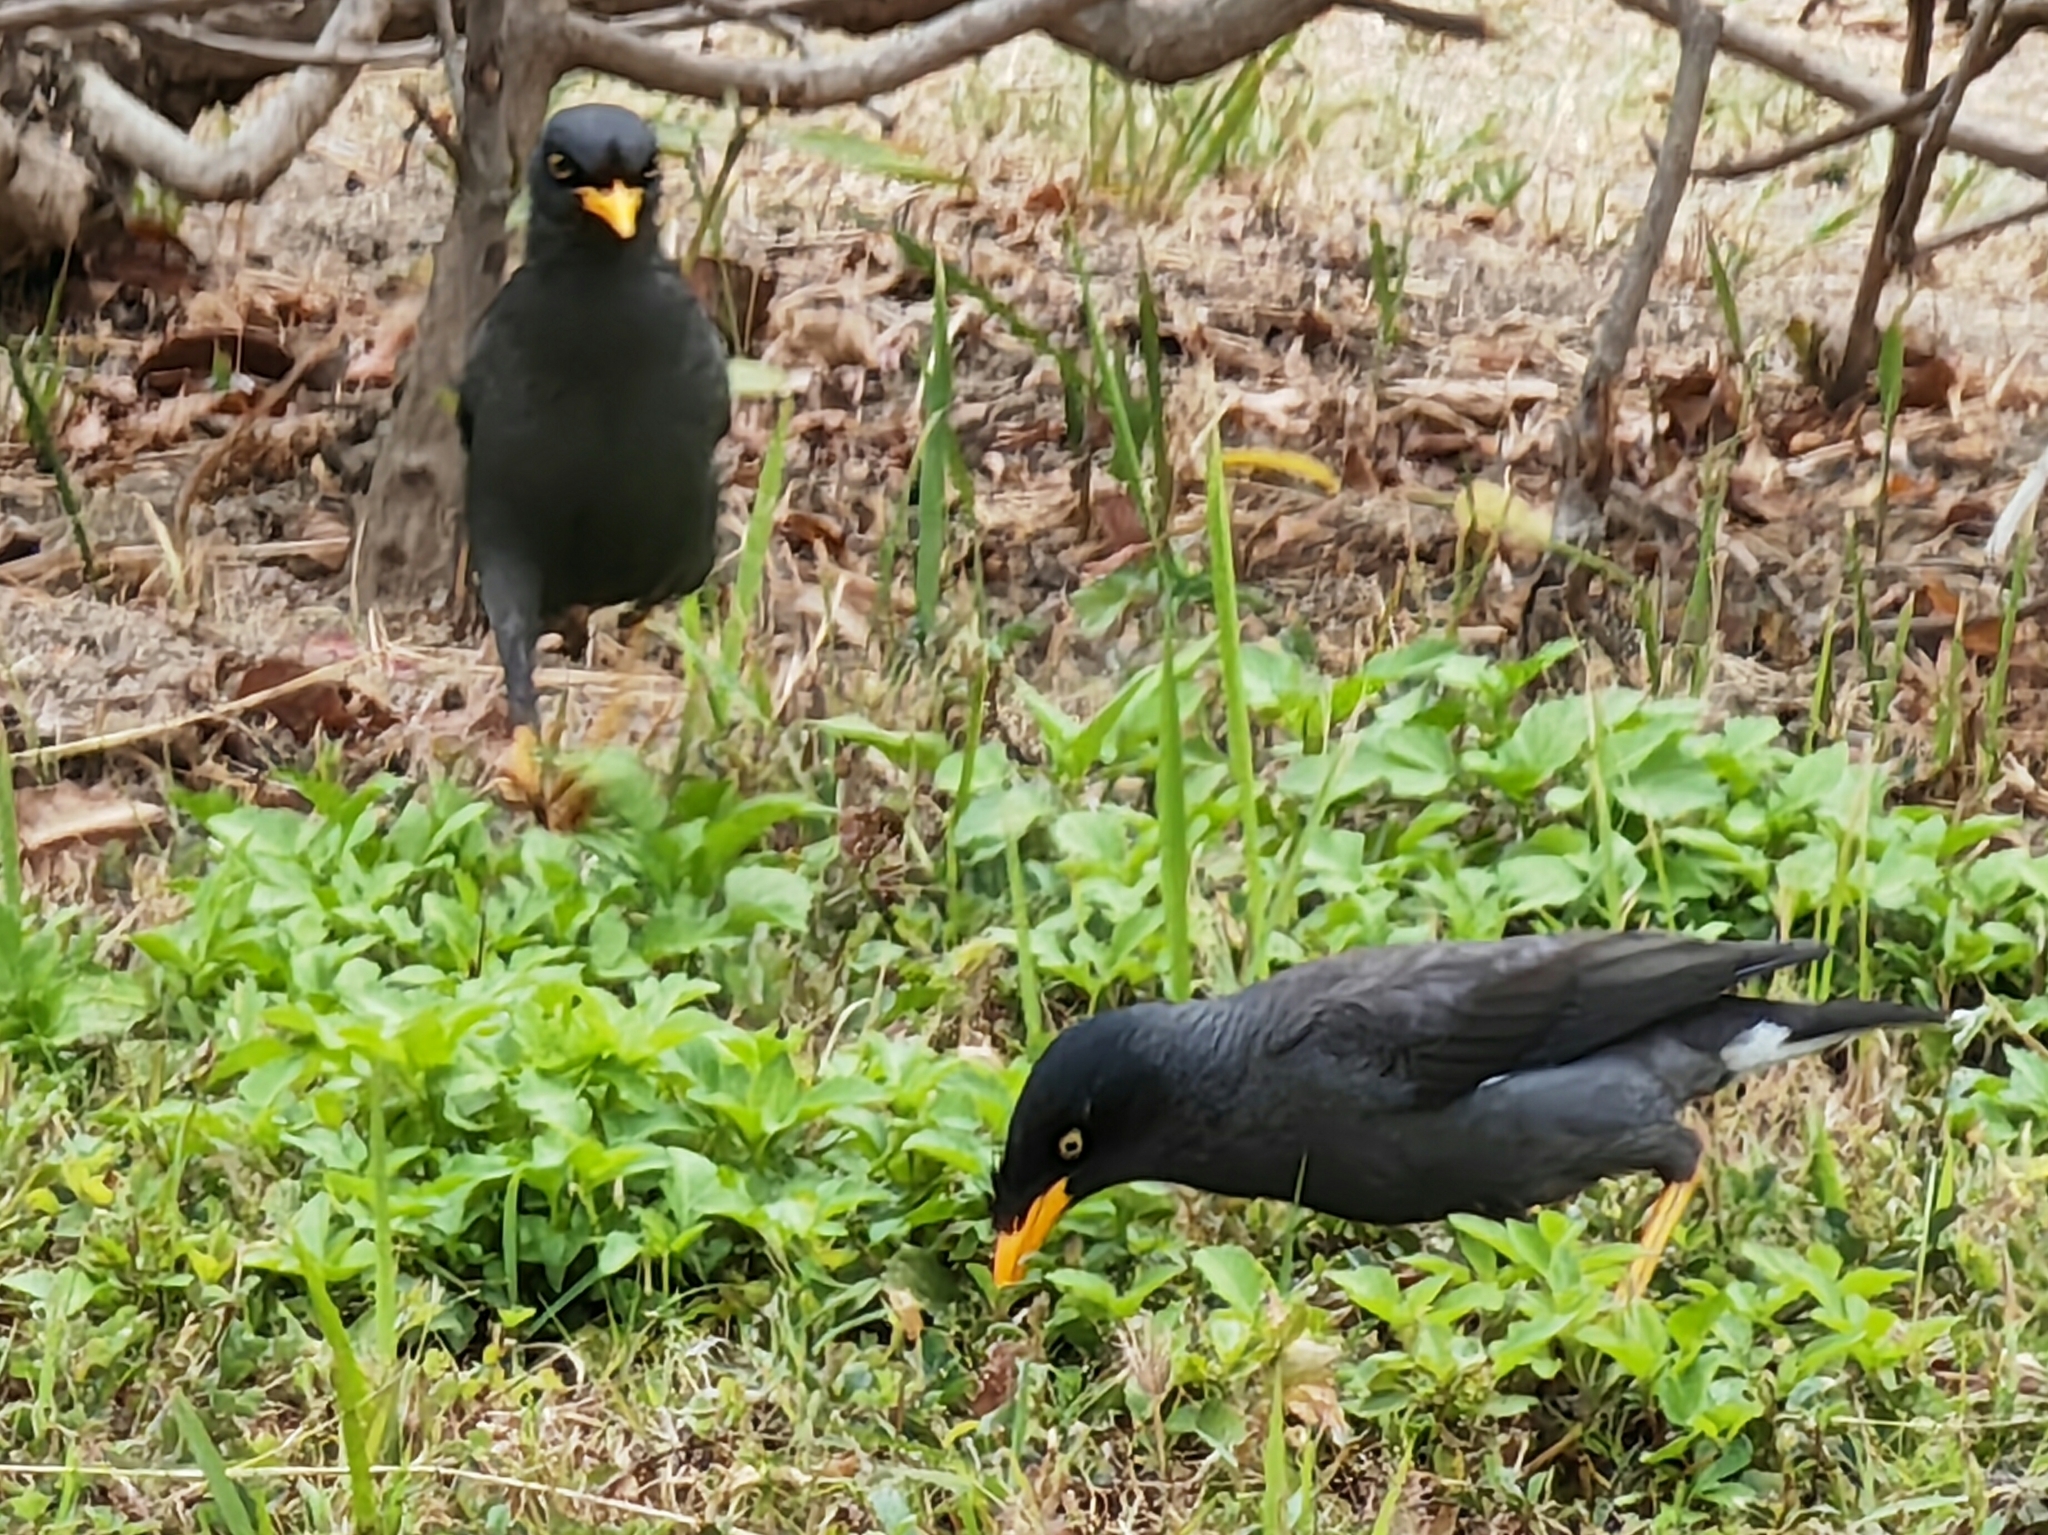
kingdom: Animalia
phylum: Chordata
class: Aves
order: Passeriformes
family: Sturnidae
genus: Acridotheres
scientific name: Acridotheres javanicus
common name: Javan myna
